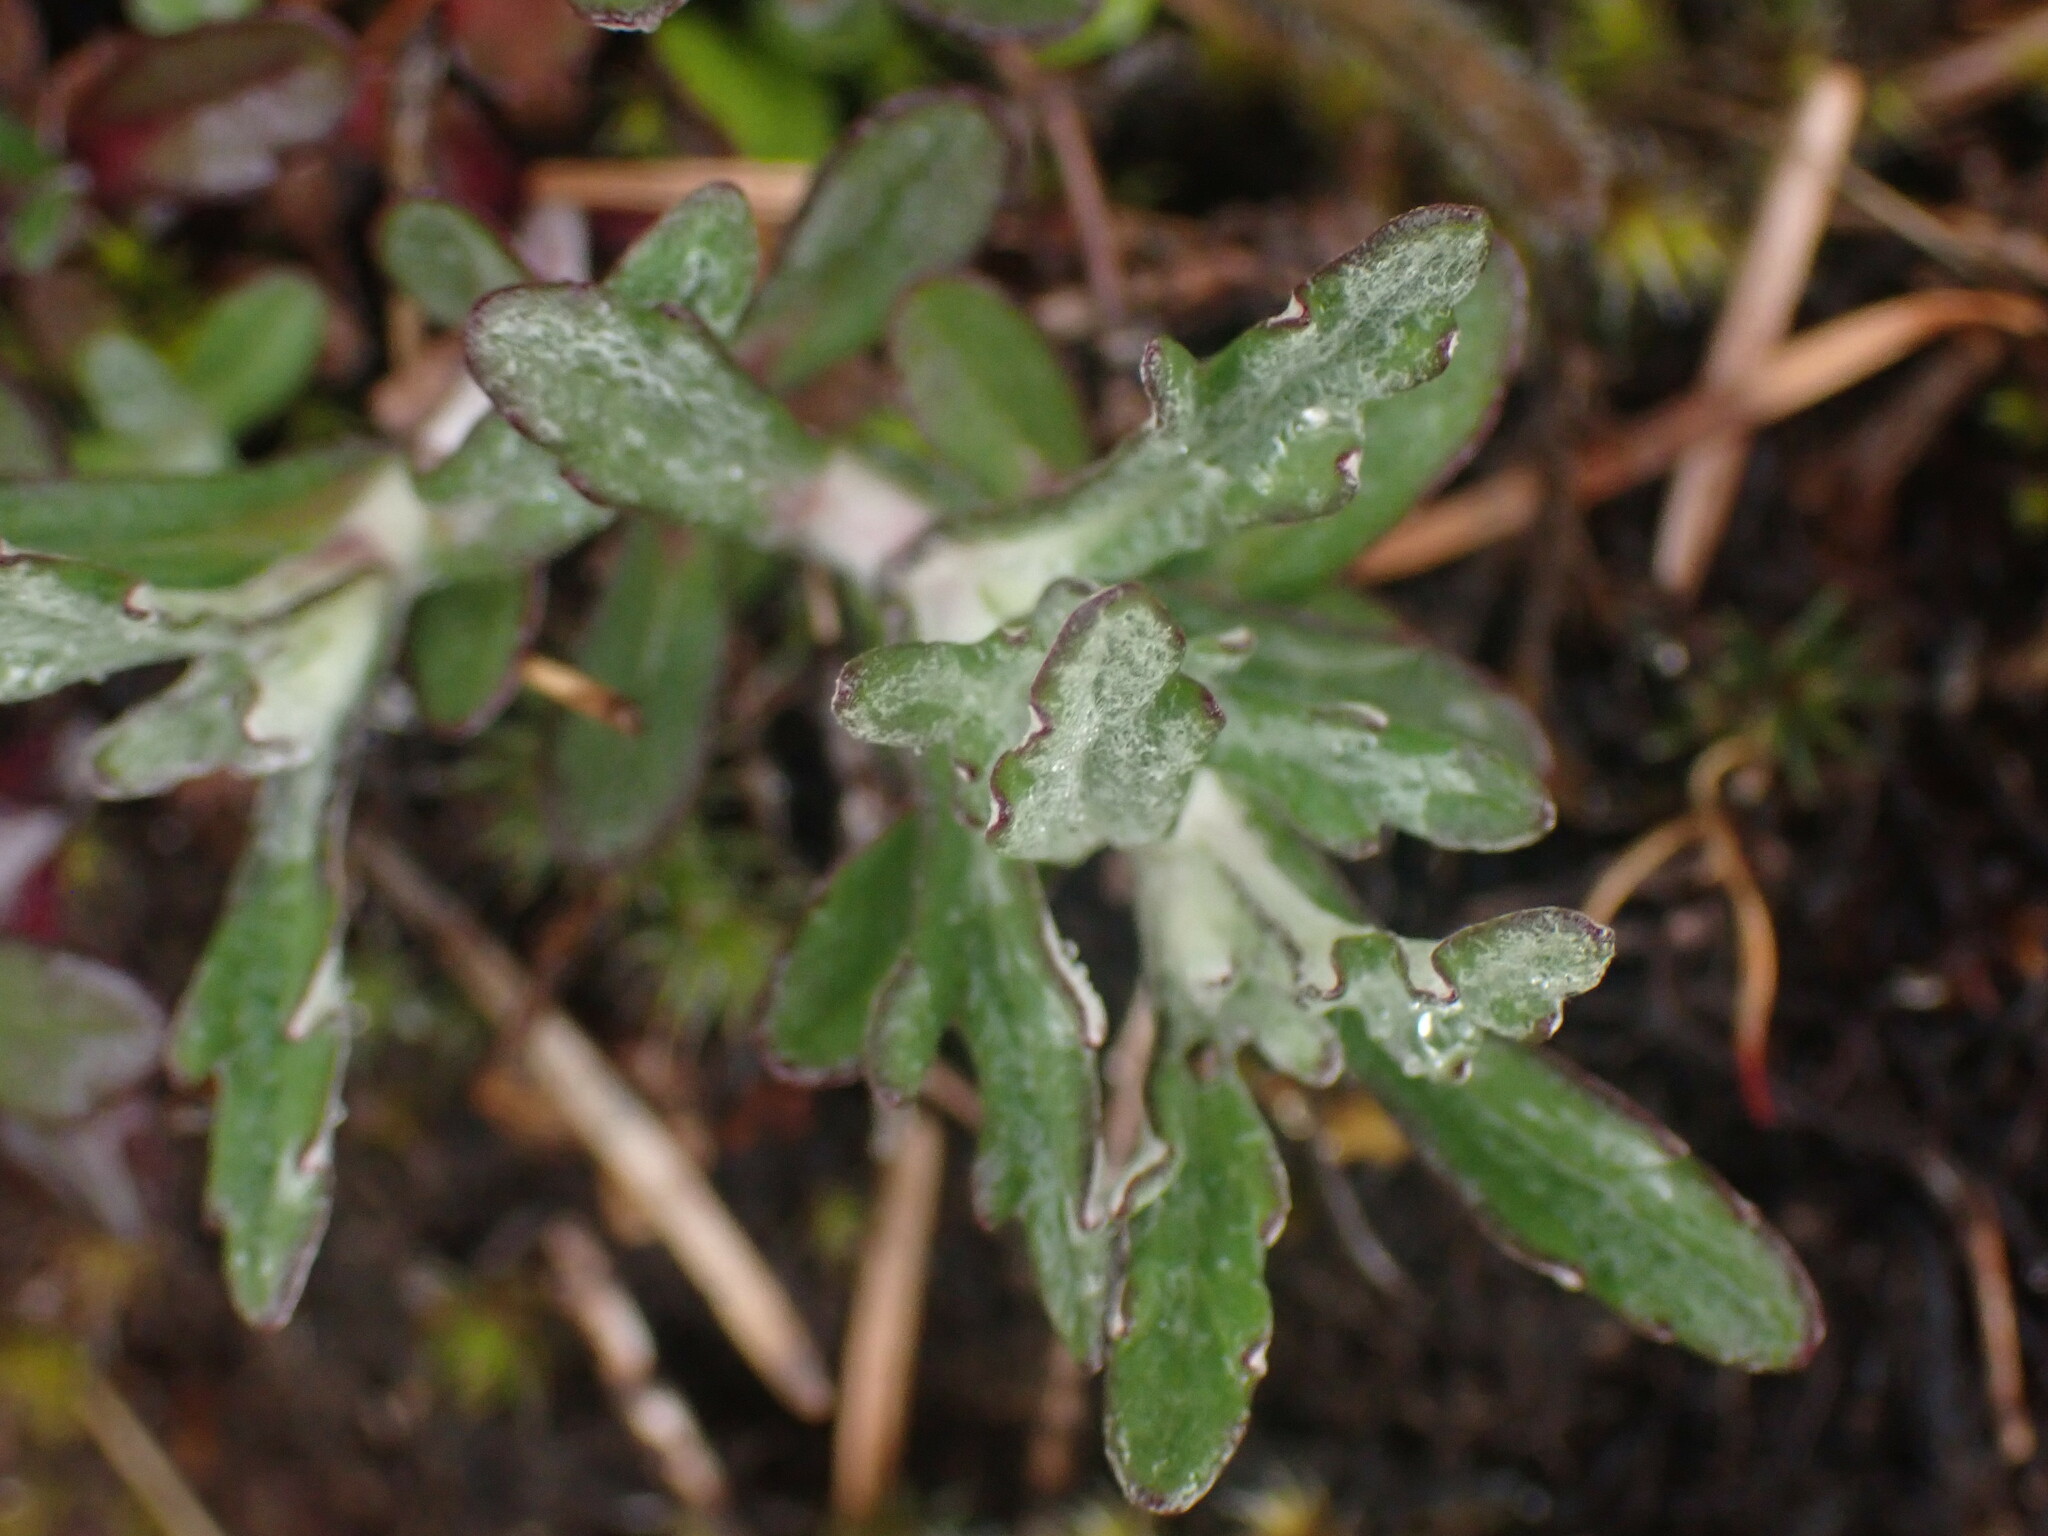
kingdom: Plantae
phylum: Tracheophyta
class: Magnoliopsida
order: Asterales
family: Asteraceae
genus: Eriophyllum
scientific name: Eriophyllum lanatum
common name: Common woolly-sunflower
